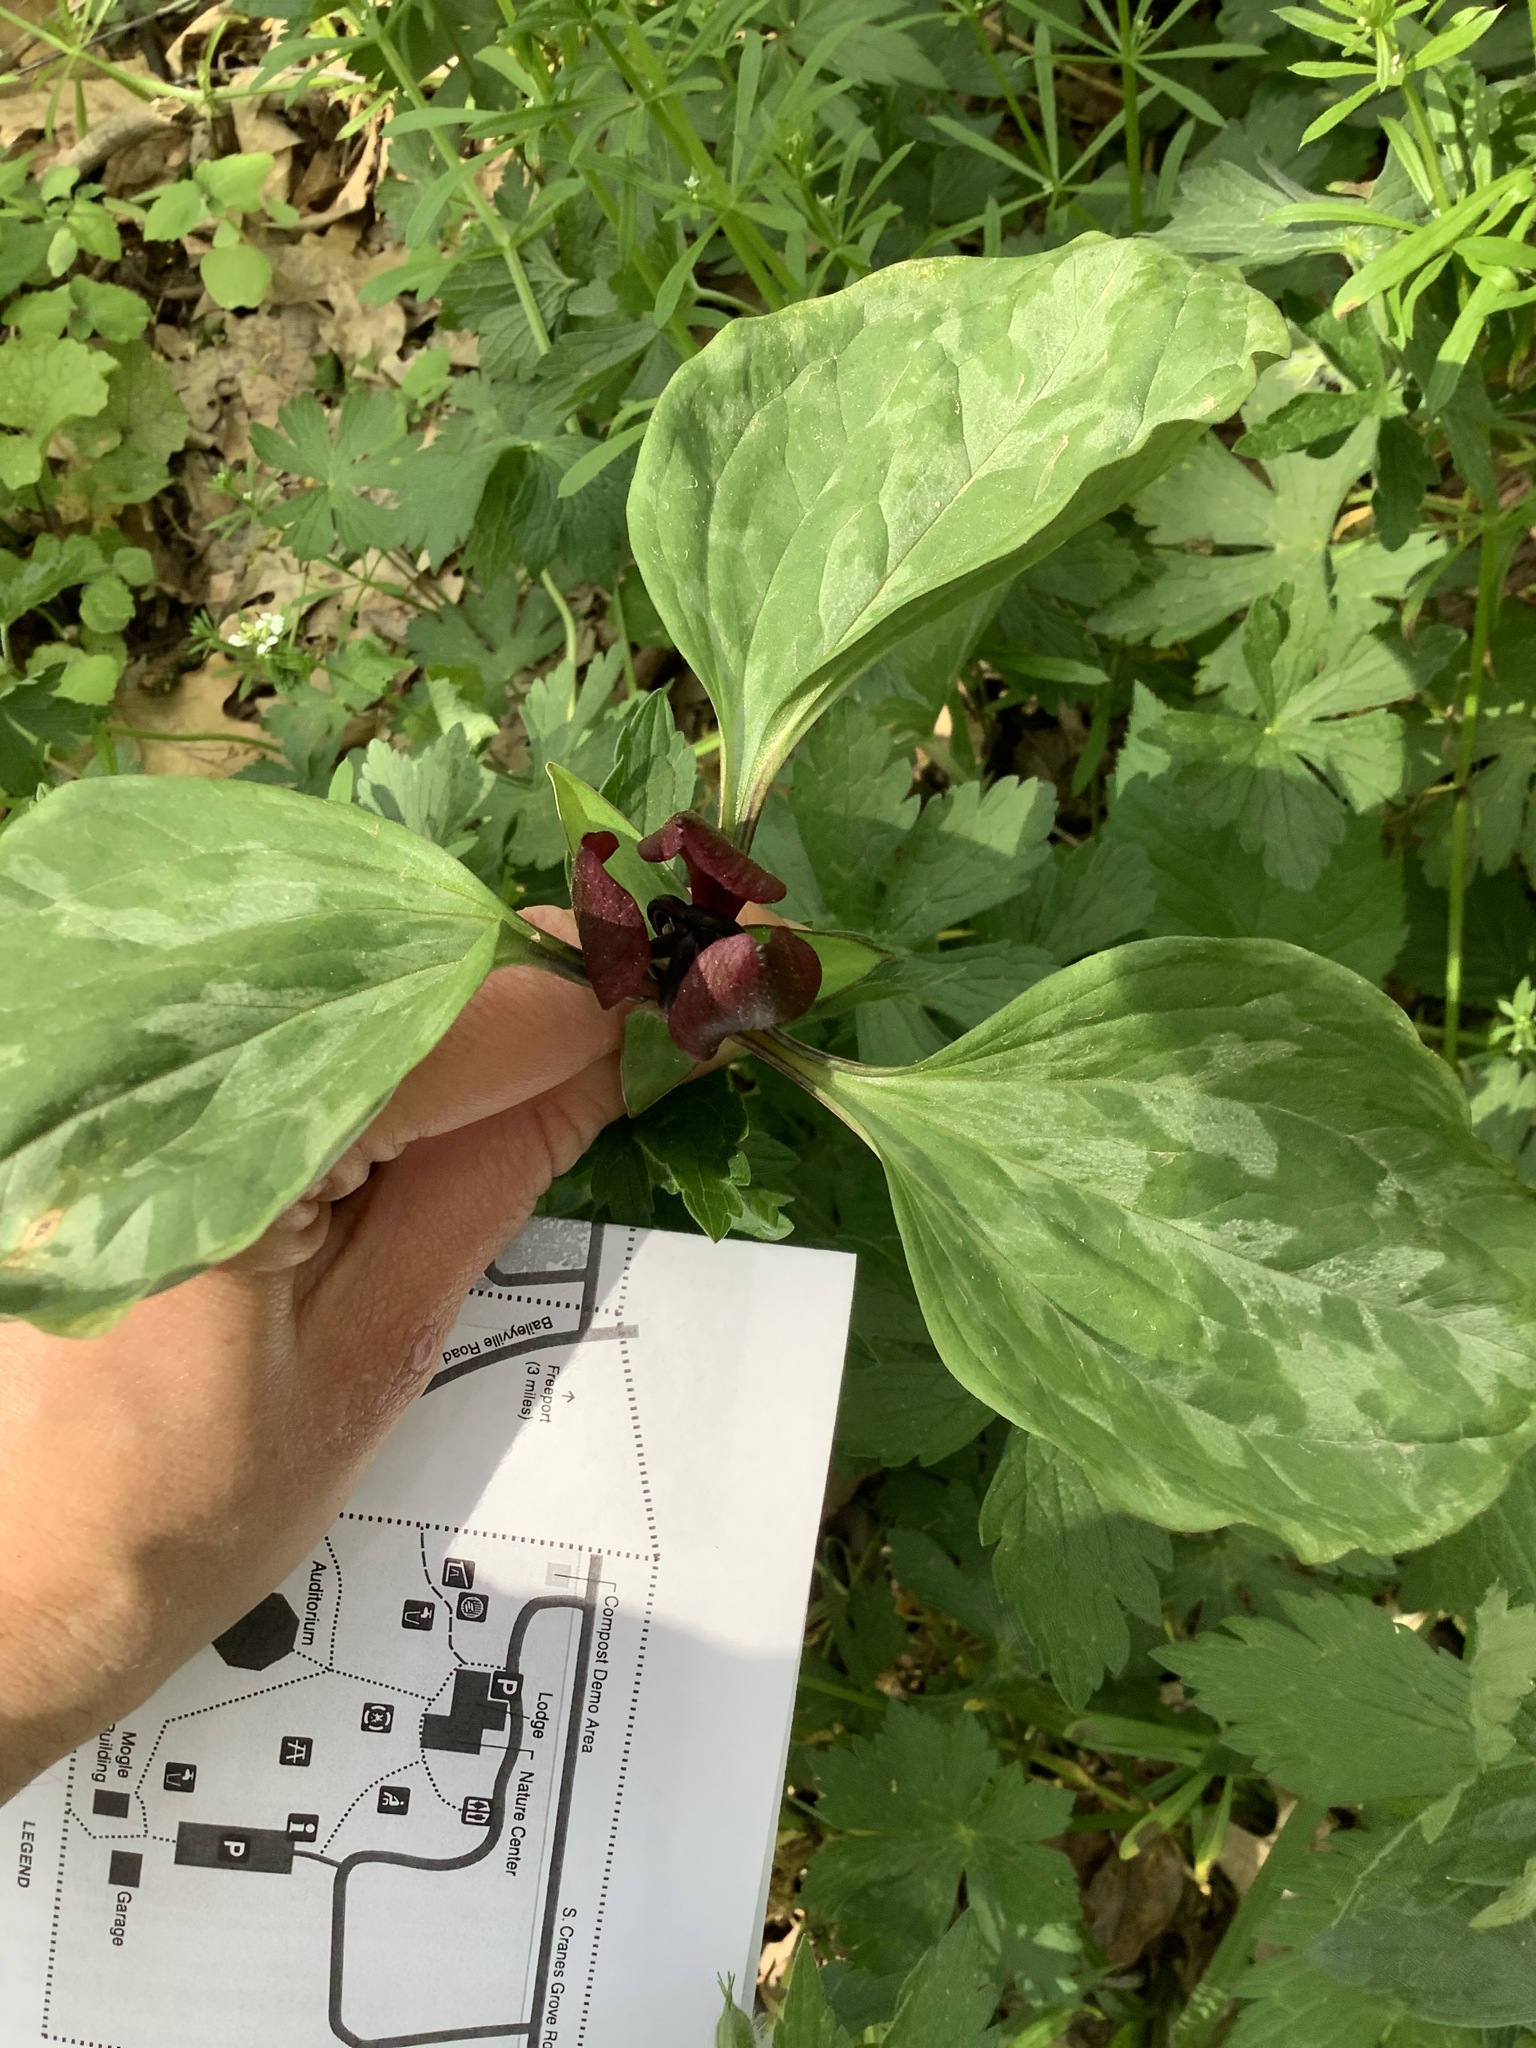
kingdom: Plantae
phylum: Tracheophyta
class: Liliopsida
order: Liliales
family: Melanthiaceae
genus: Trillium
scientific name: Trillium recurvatum
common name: Bloody butcher
